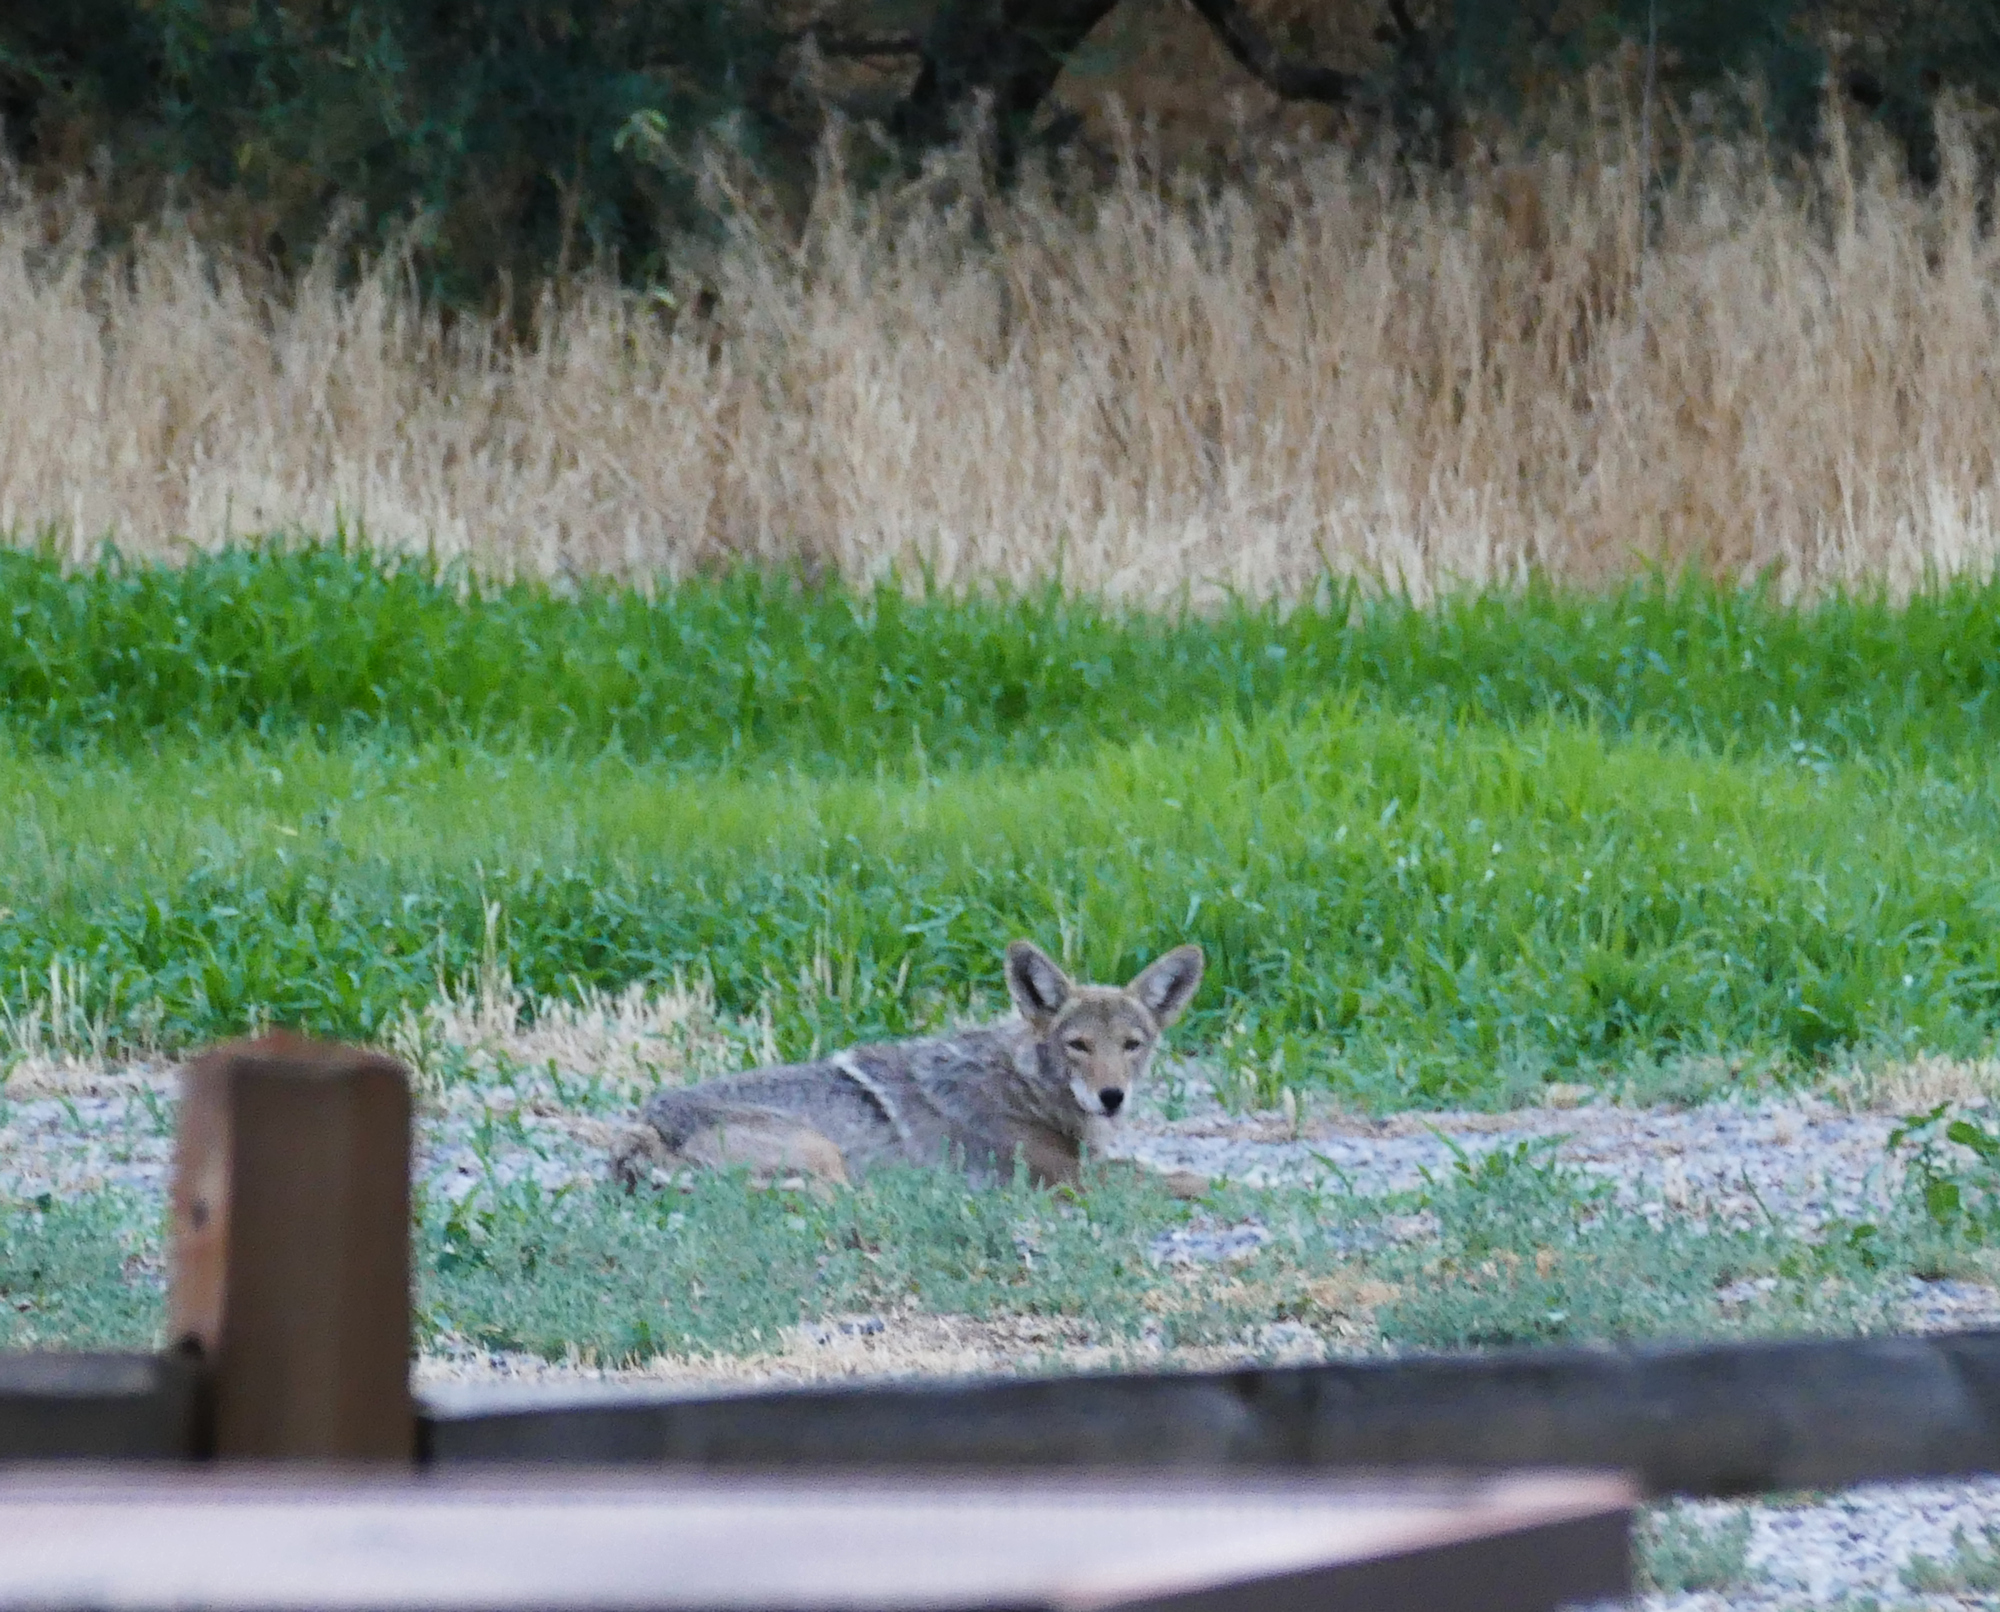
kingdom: Animalia
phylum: Chordata
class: Mammalia
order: Carnivora
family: Canidae
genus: Canis
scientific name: Canis latrans
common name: Coyote
